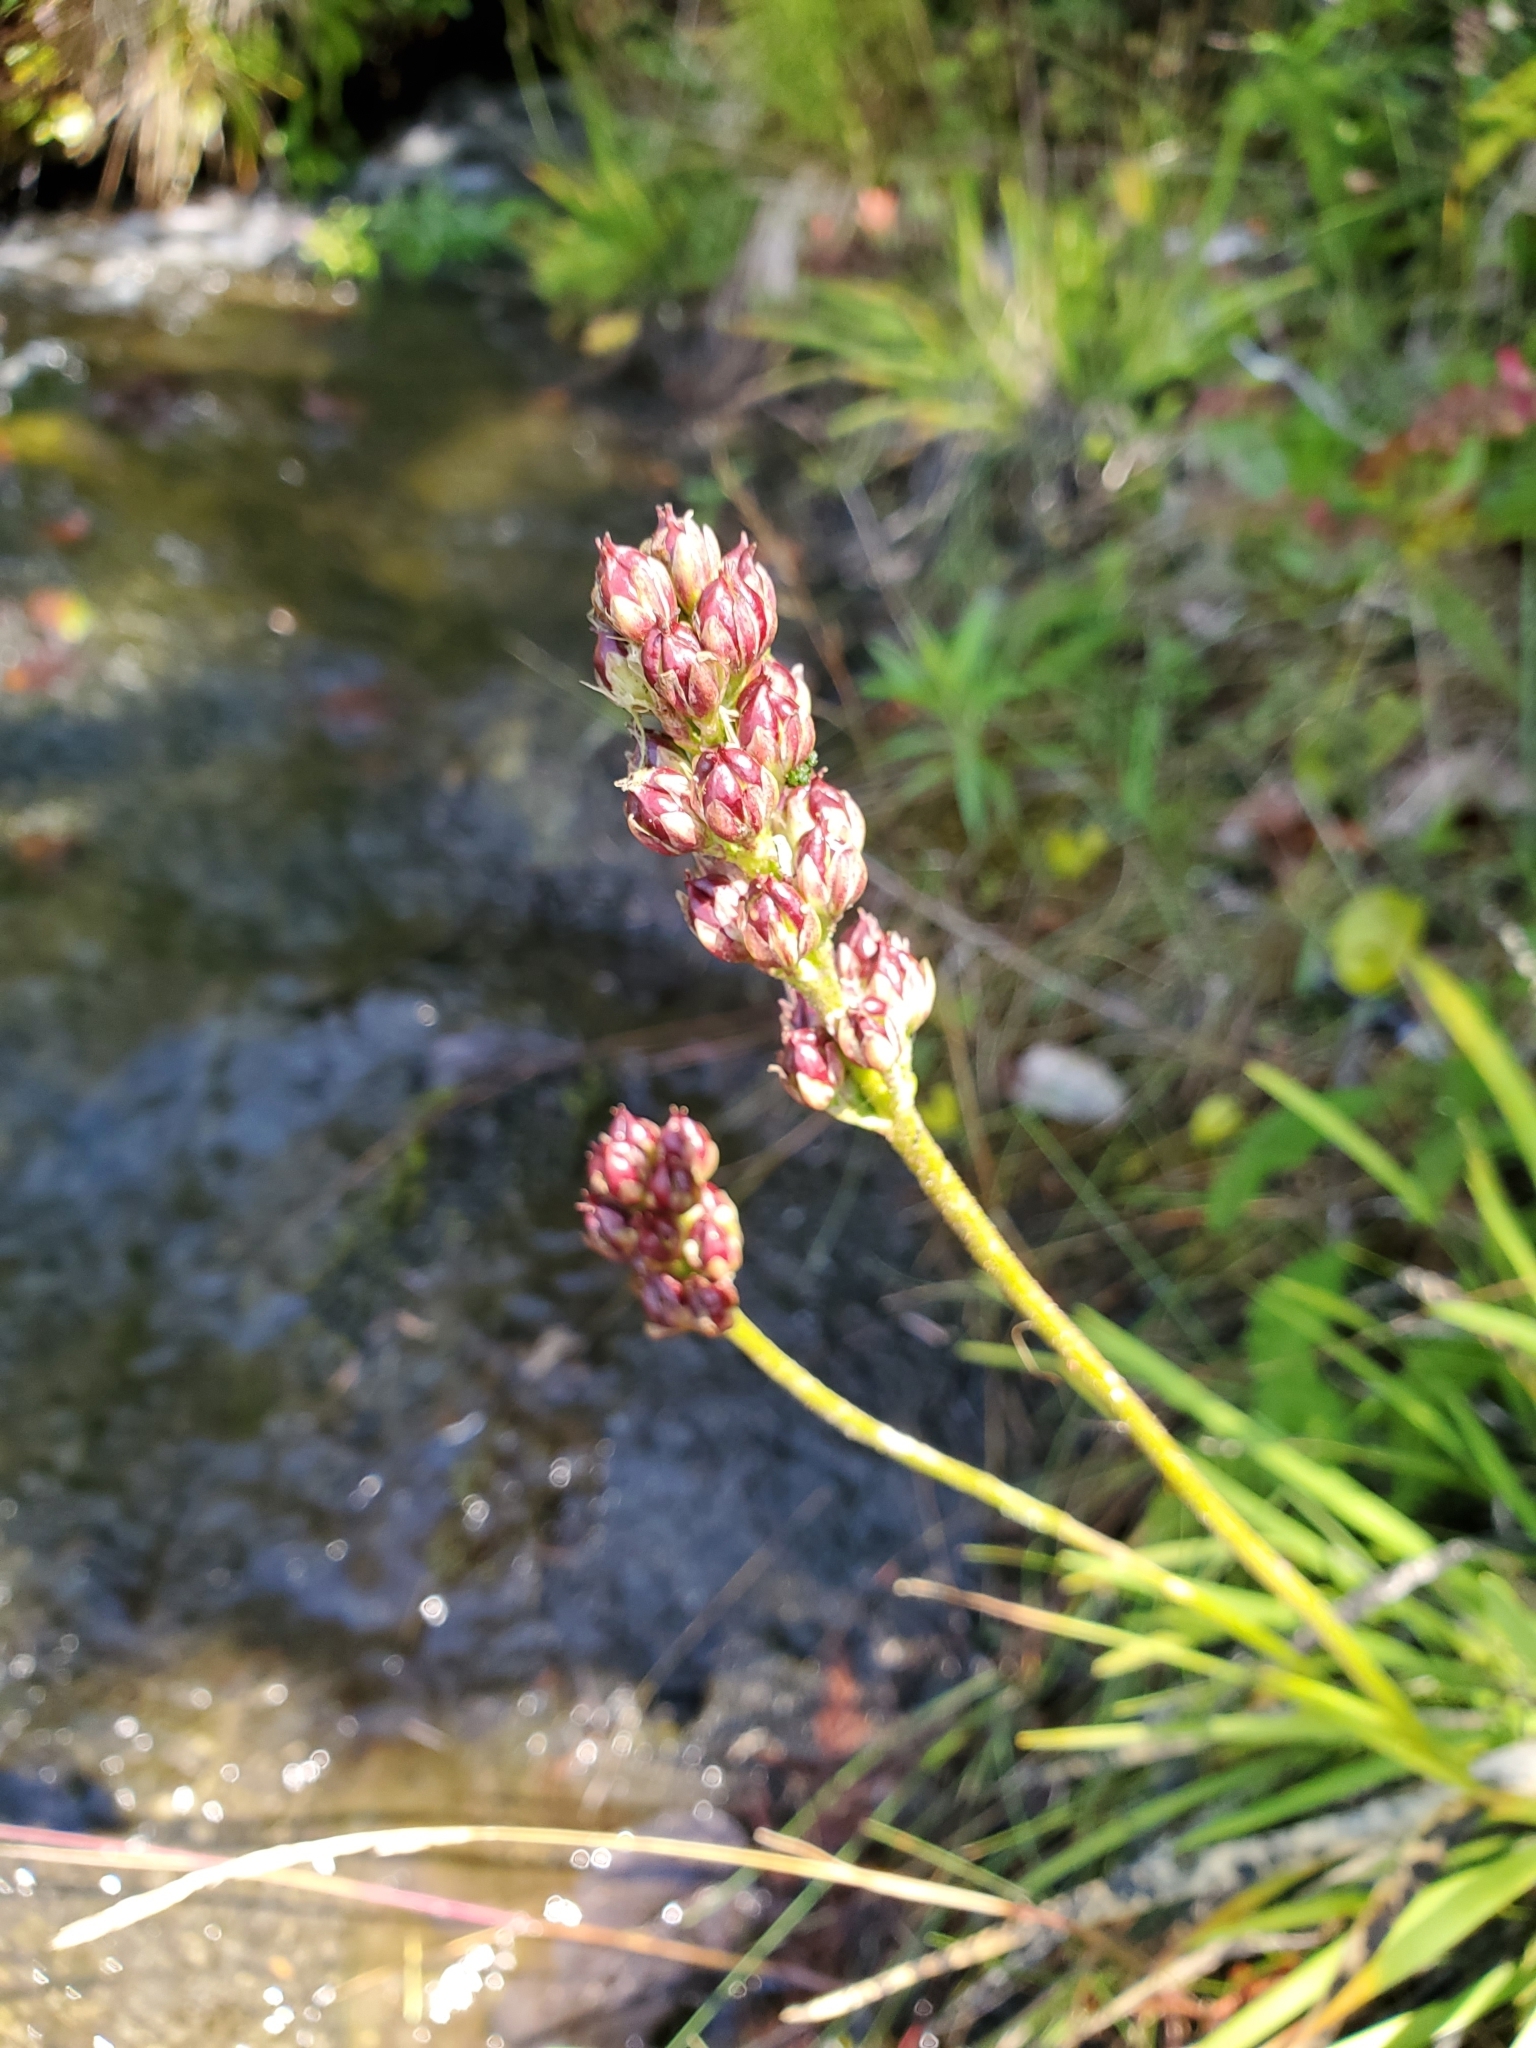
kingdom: Plantae
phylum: Tracheophyta
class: Liliopsida
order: Alismatales
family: Tofieldiaceae
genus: Triantha
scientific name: Triantha occidentalis
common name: Western false asphodel
